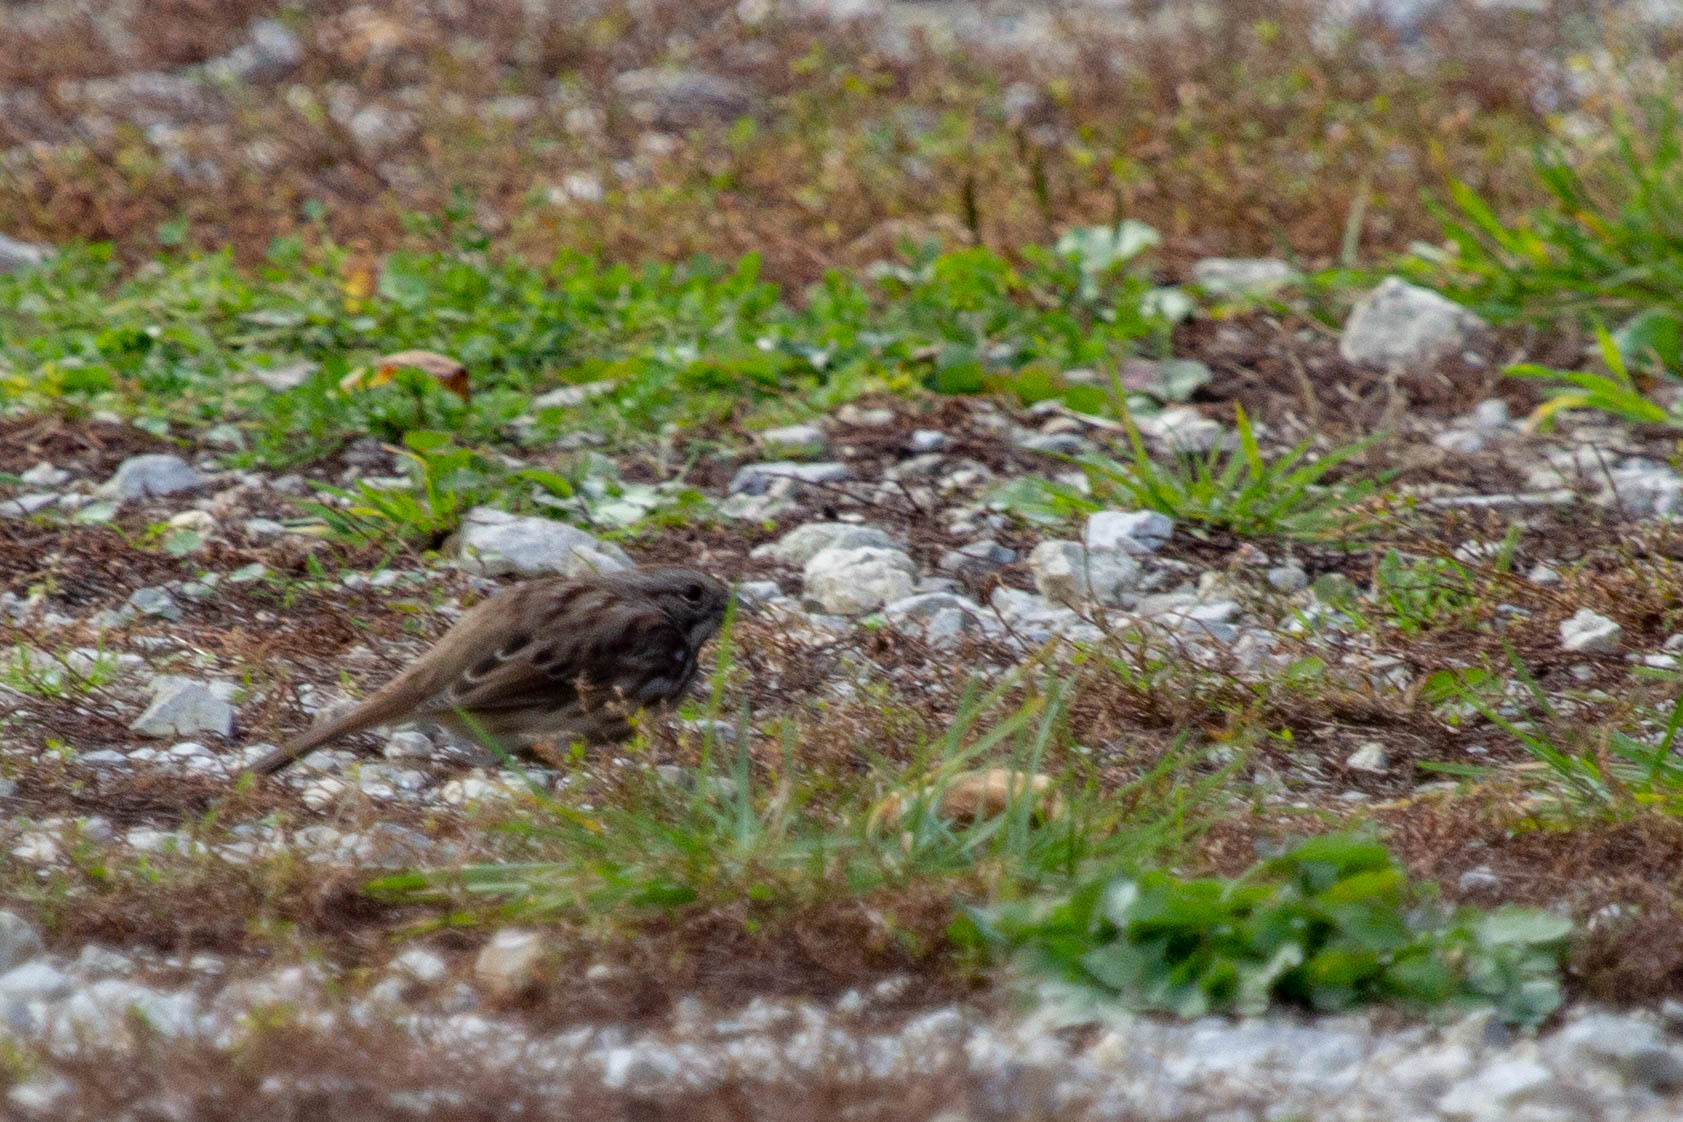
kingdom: Animalia
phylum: Chordata
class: Aves
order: Passeriformes
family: Passerellidae
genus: Melospiza
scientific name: Melospiza melodia
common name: Song sparrow
